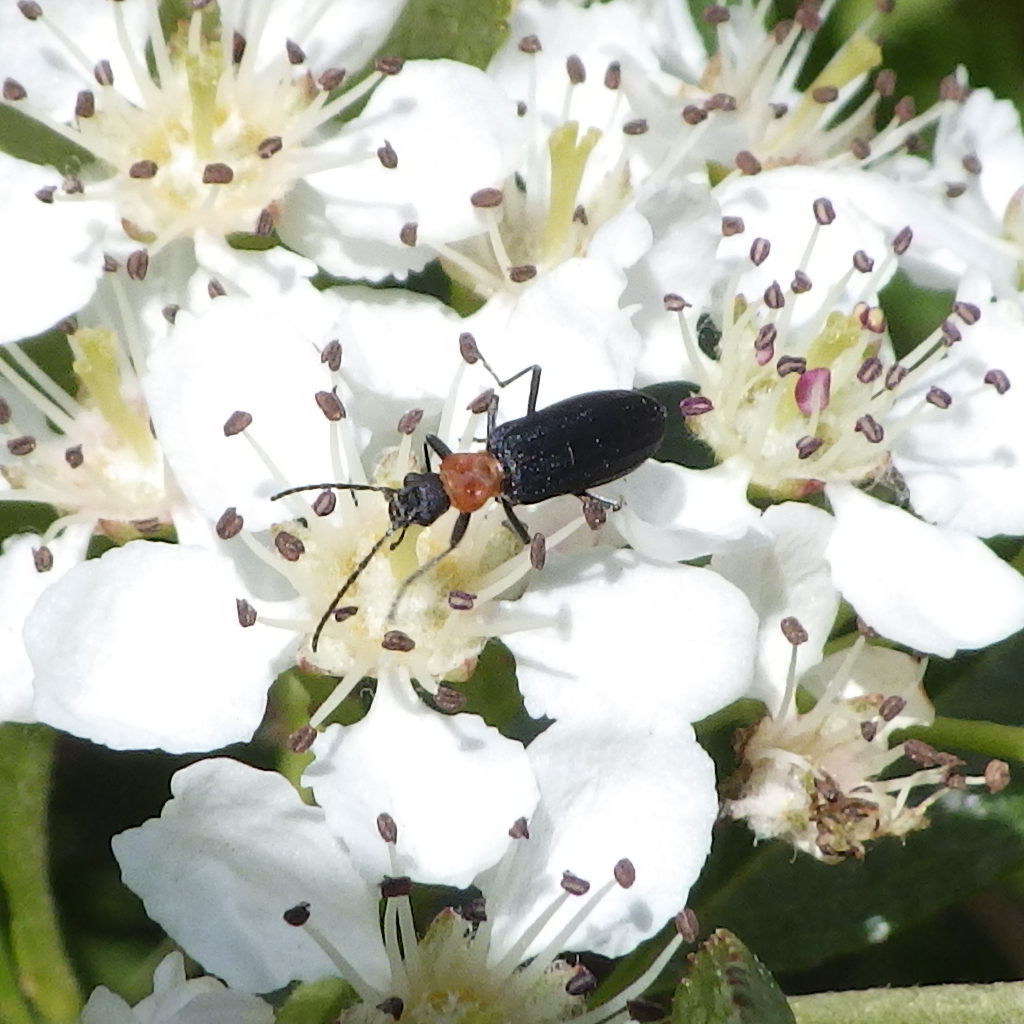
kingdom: Animalia
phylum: Arthropoda
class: Insecta
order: Coleoptera
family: Oedemeridae
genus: Ischnomera
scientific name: Ischnomera
